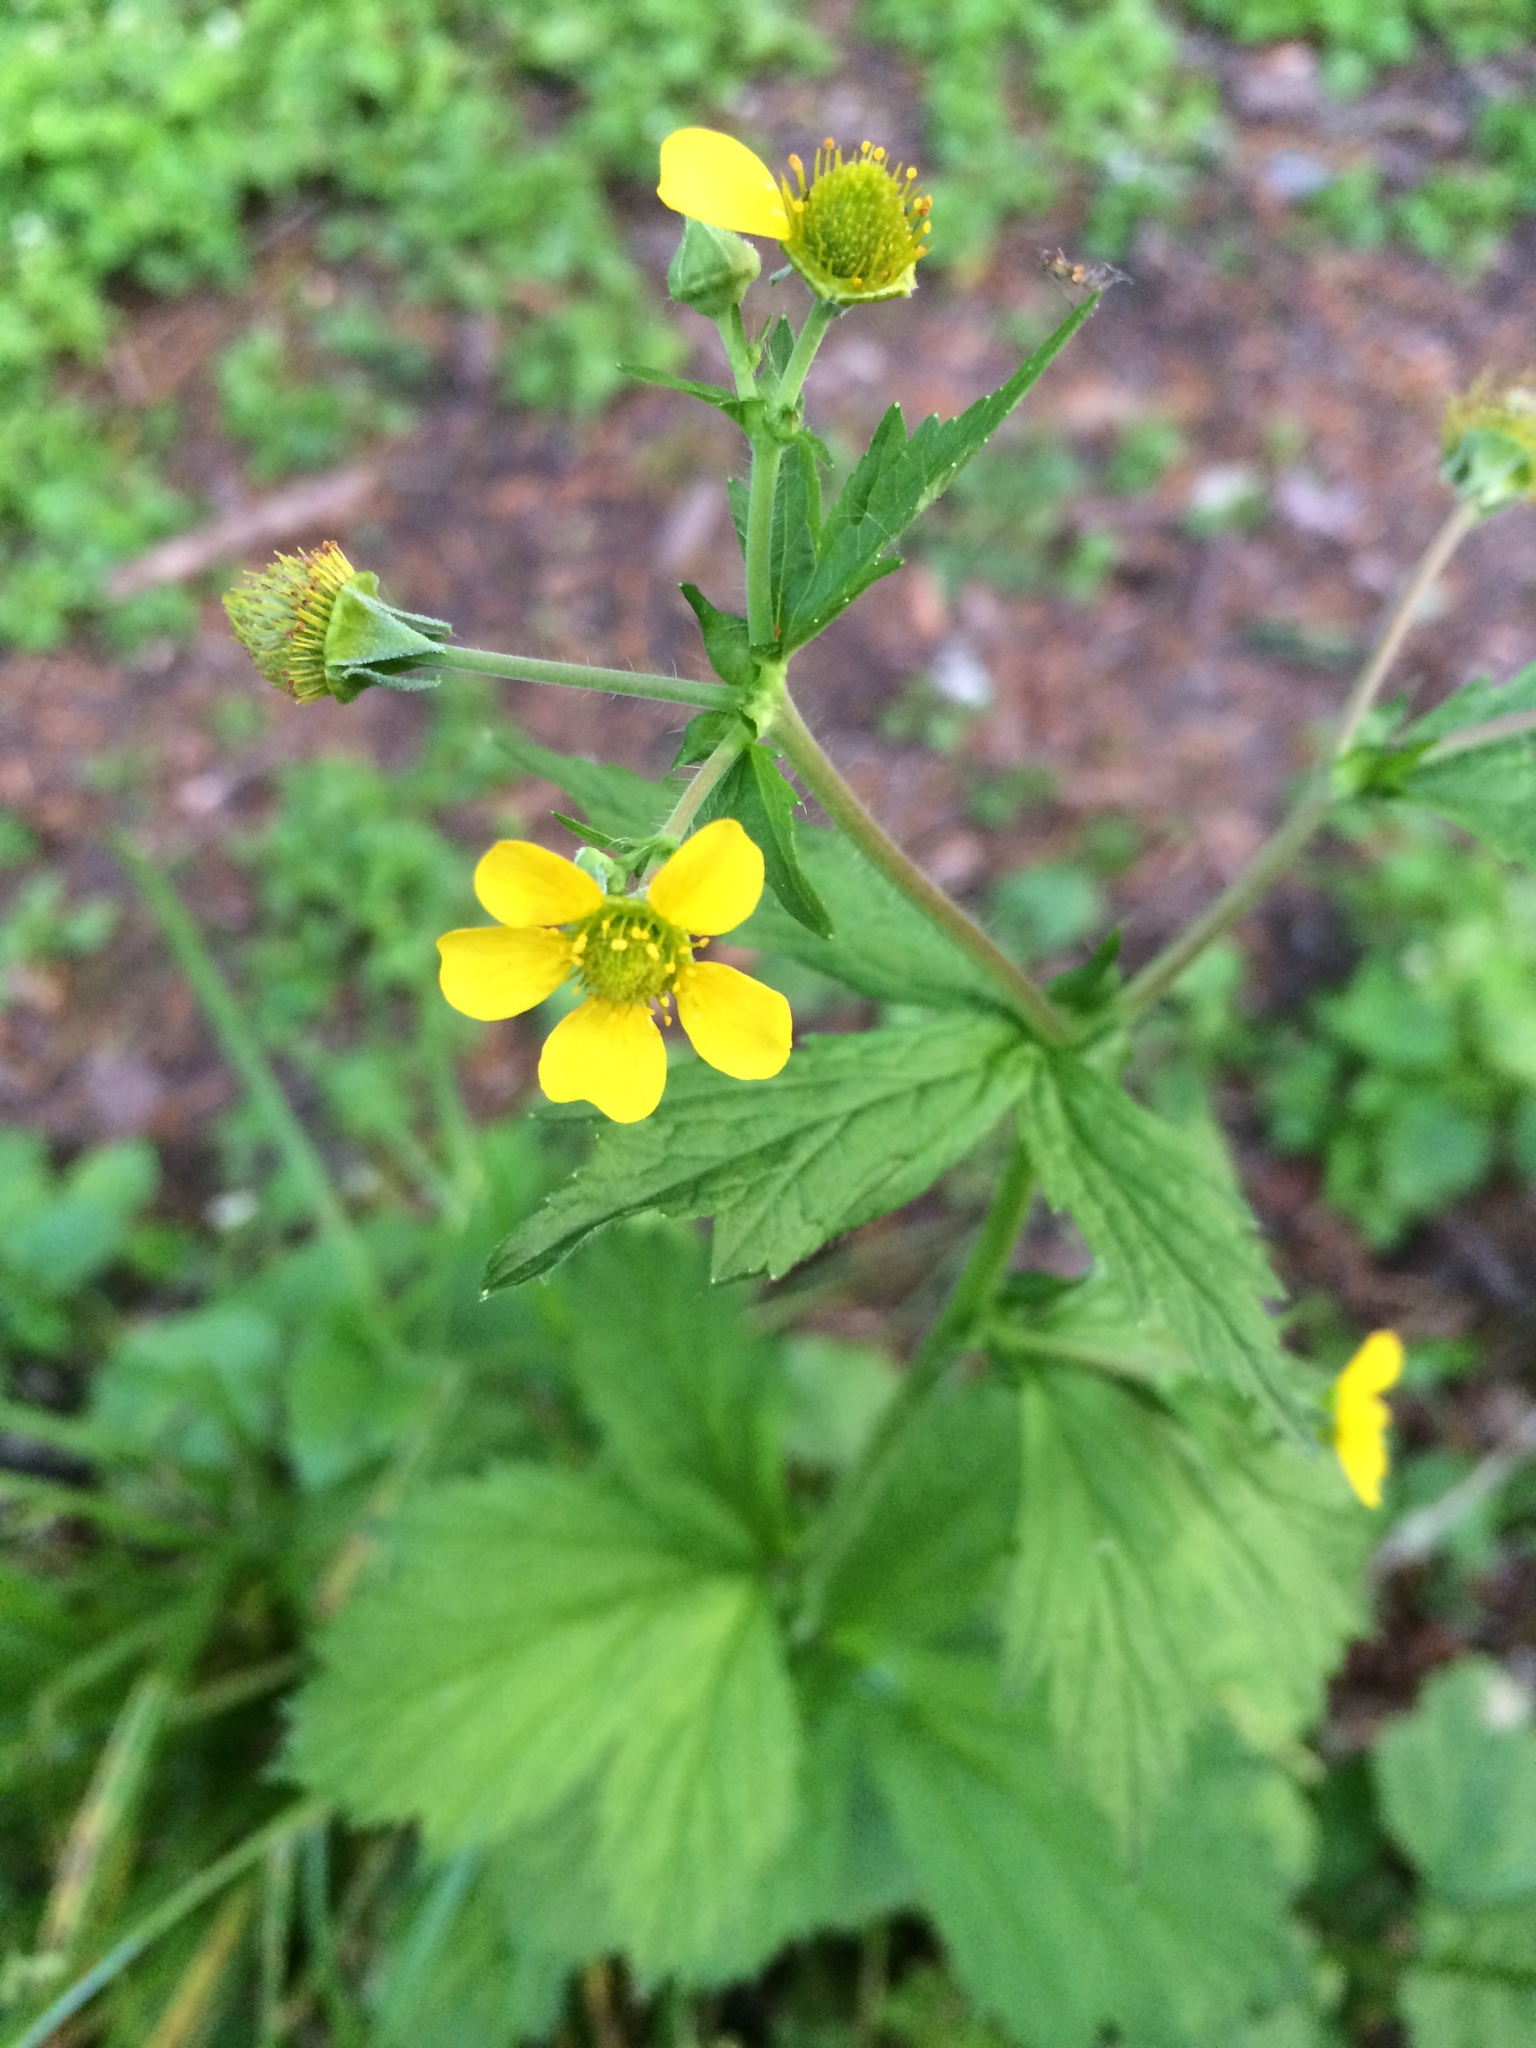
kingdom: Plantae
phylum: Tracheophyta
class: Magnoliopsida
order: Rosales
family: Rosaceae
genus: Geum
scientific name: Geum macrophyllum
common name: Large-leaved avens
